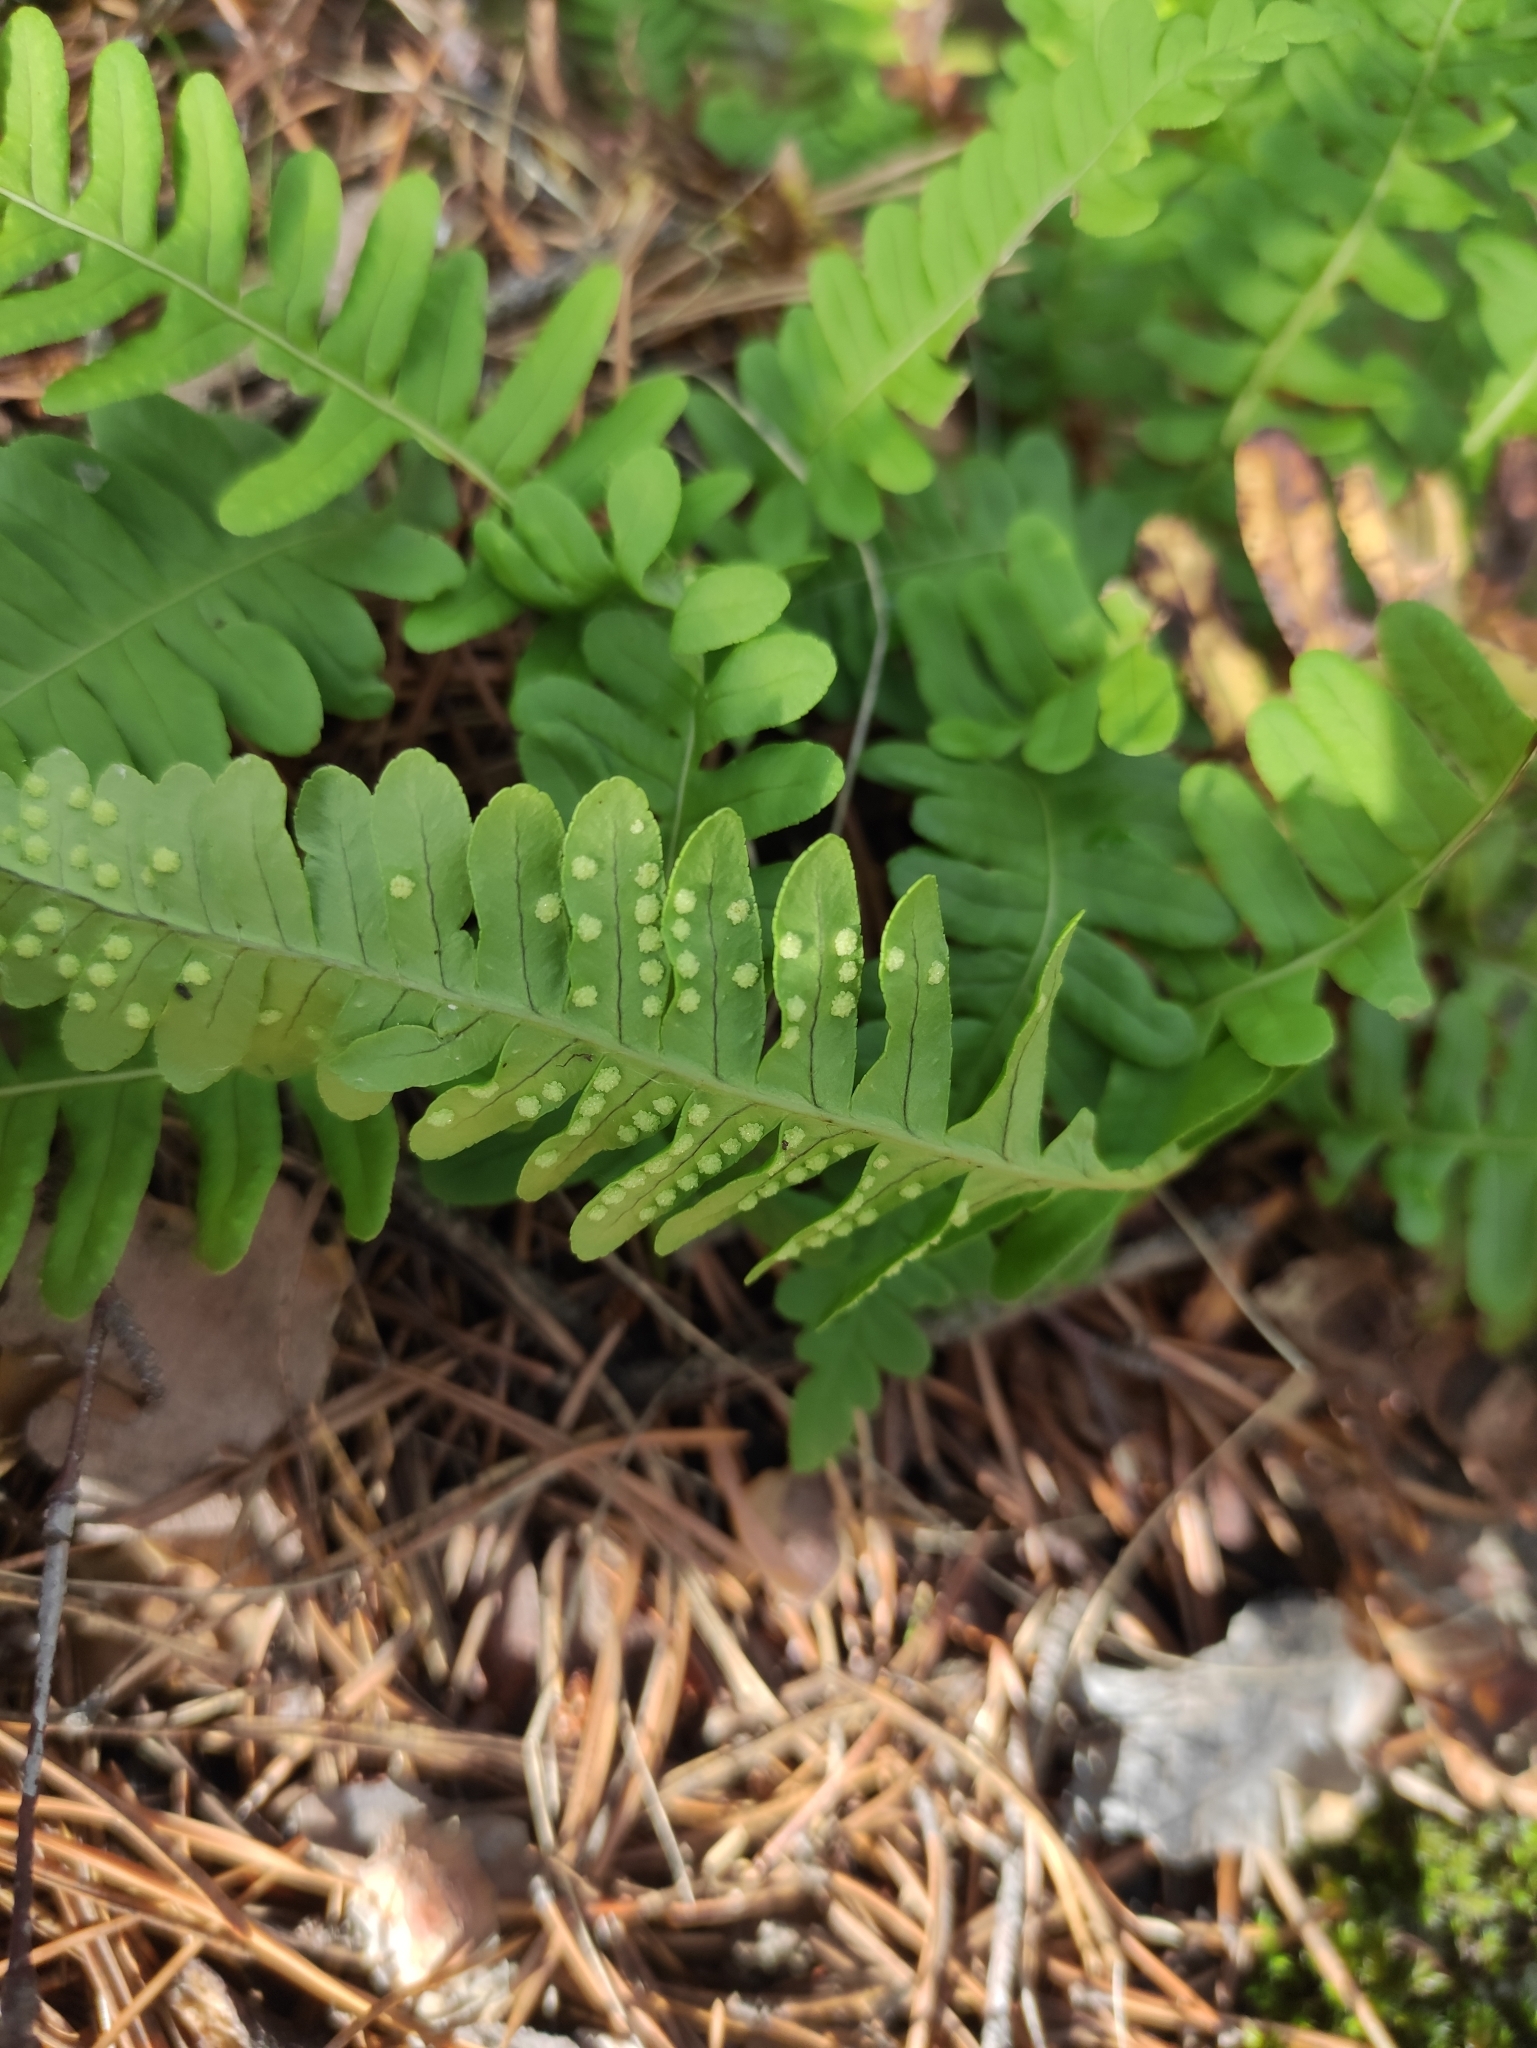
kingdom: Plantae
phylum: Tracheophyta
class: Polypodiopsida
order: Polypodiales
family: Polypodiaceae
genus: Polypodium
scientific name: Polypodium sibiricum
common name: Siberian polypody
